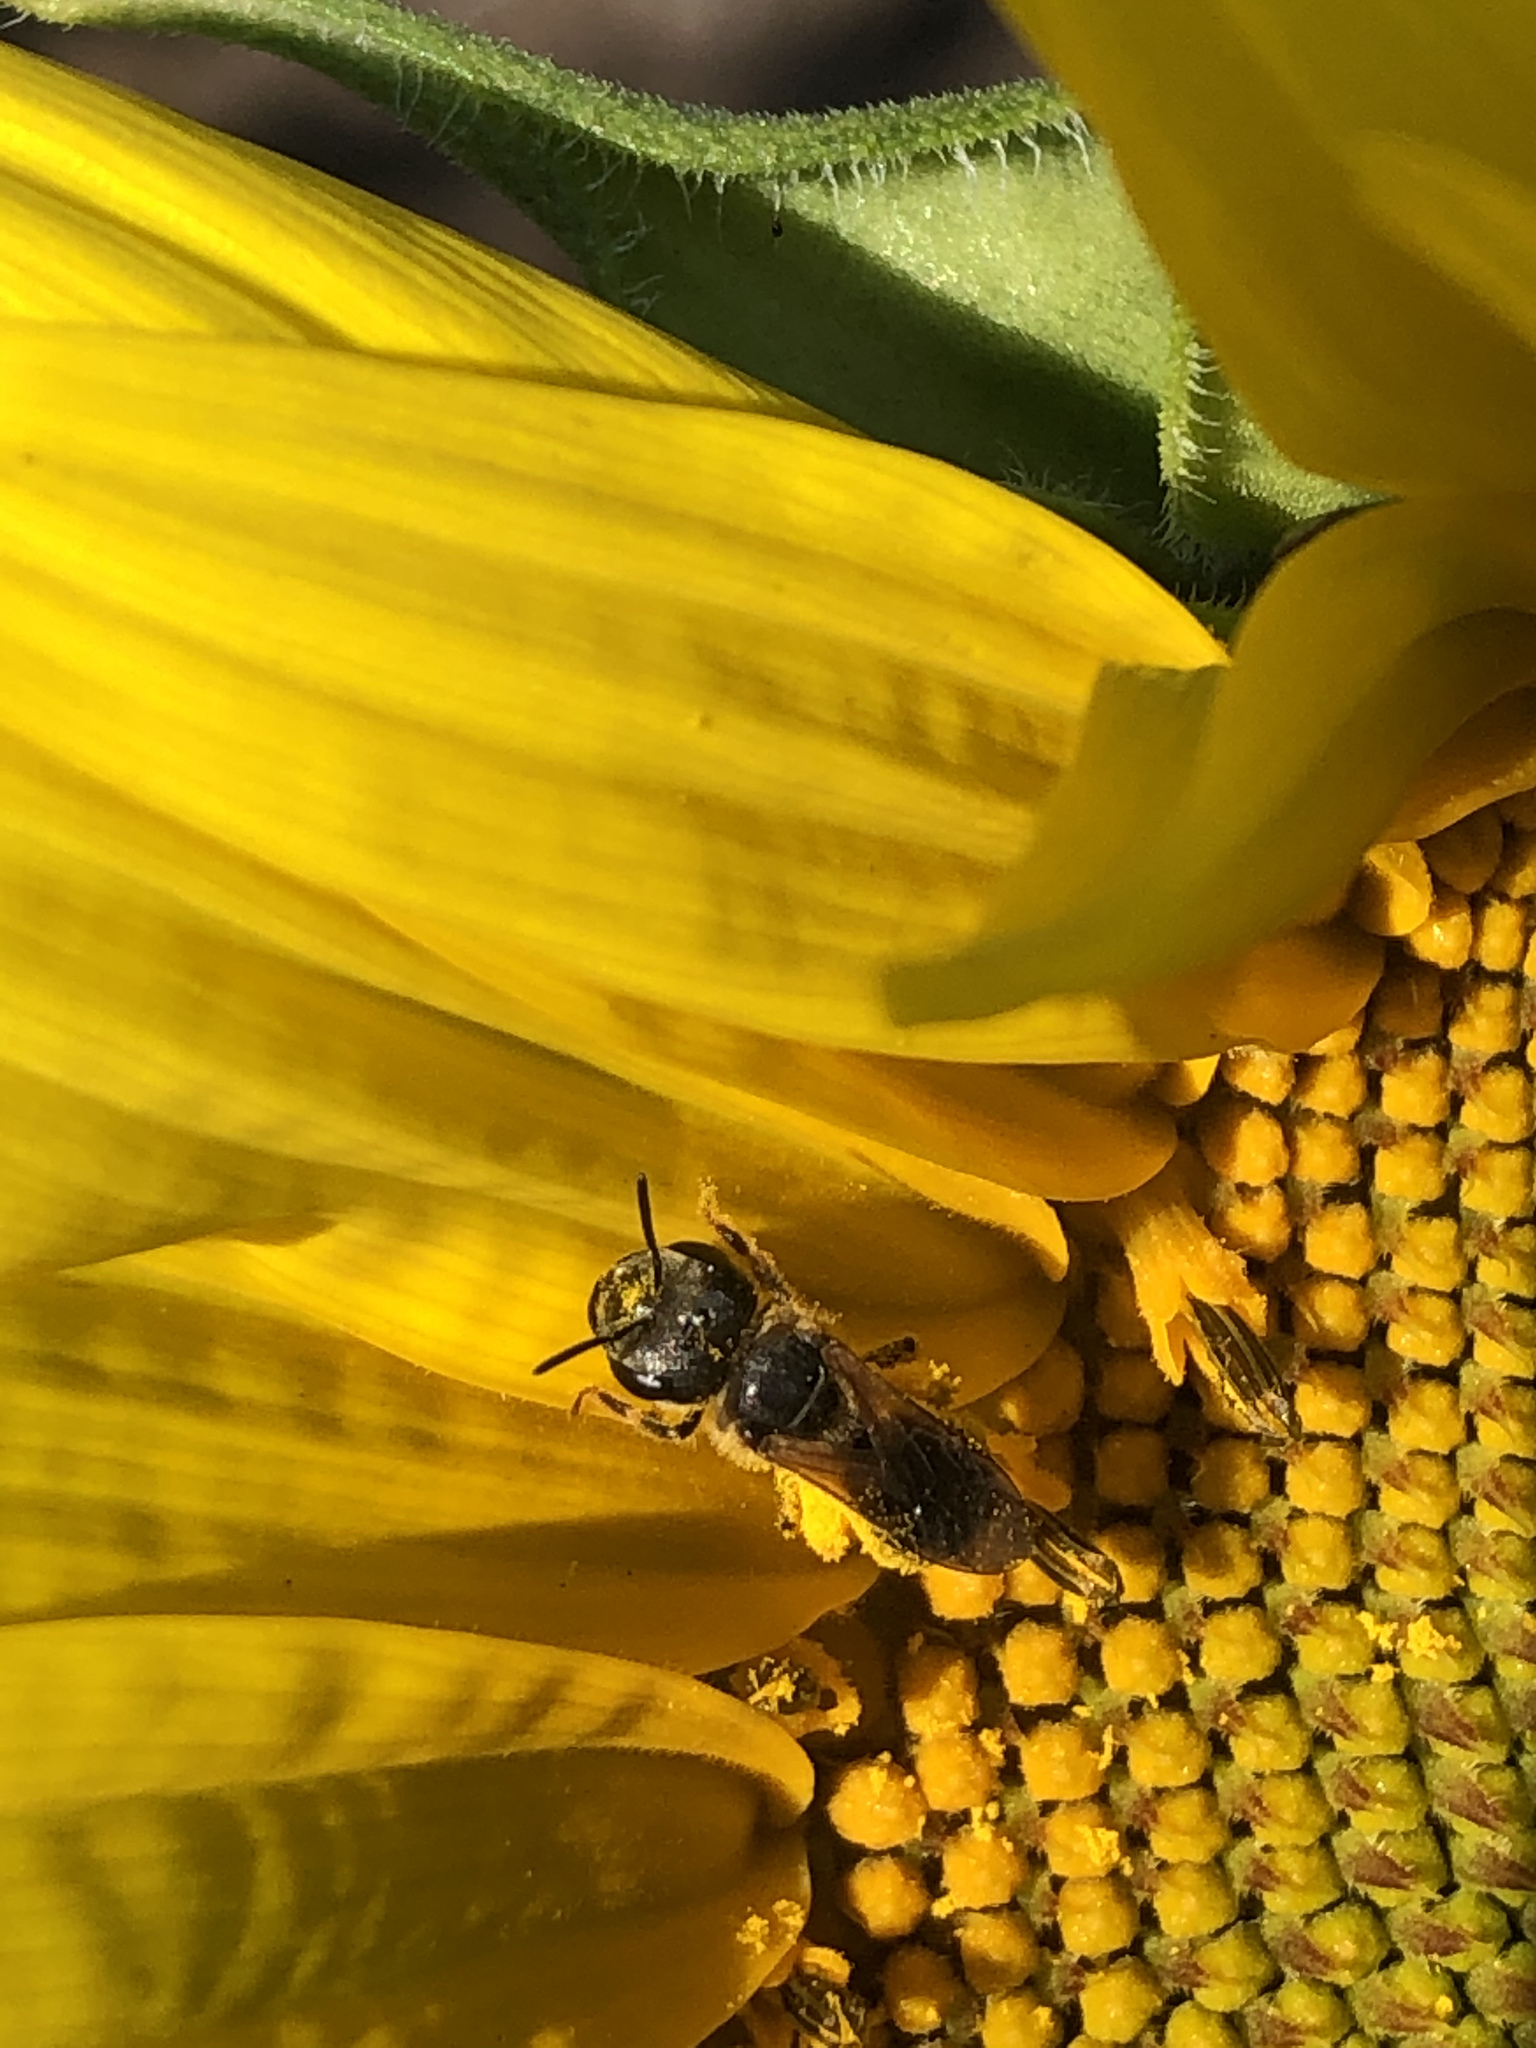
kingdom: Animalia
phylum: Arthropoda
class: Insecta
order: Hymenoptera
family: Halictidae
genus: Halictus
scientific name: Halictus poeyi
